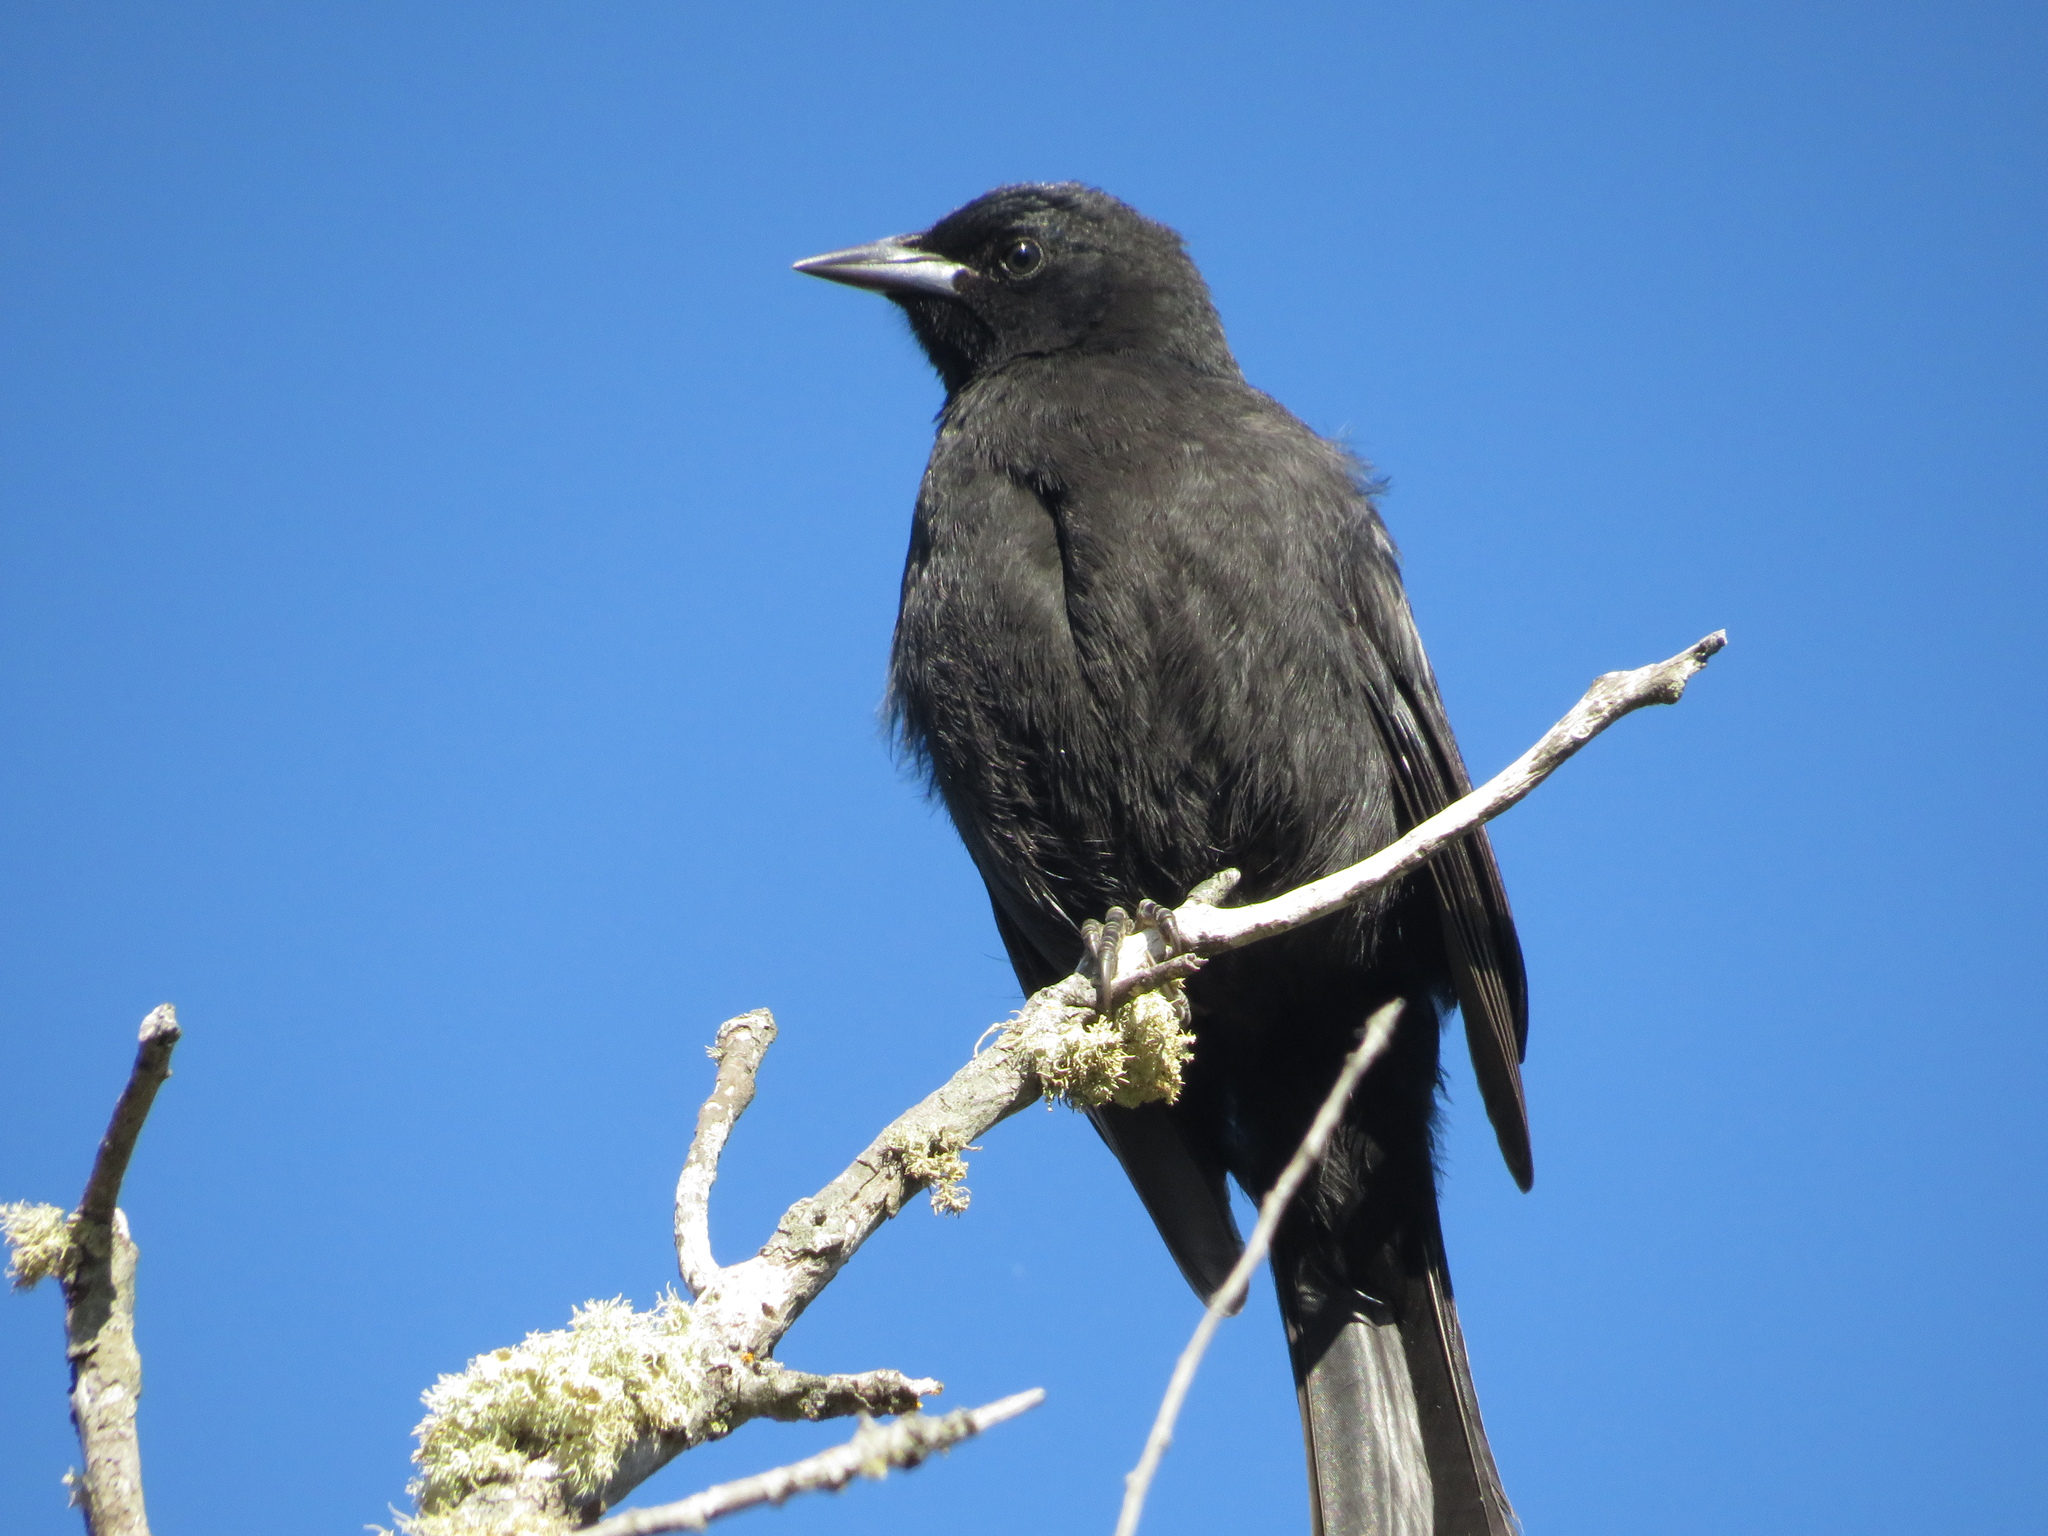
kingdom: Animalia
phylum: Chordata
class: Aves
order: Passeriformes
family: Icteridae
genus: Curaeus
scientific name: Curaeus curaeus
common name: Austral blackbird
